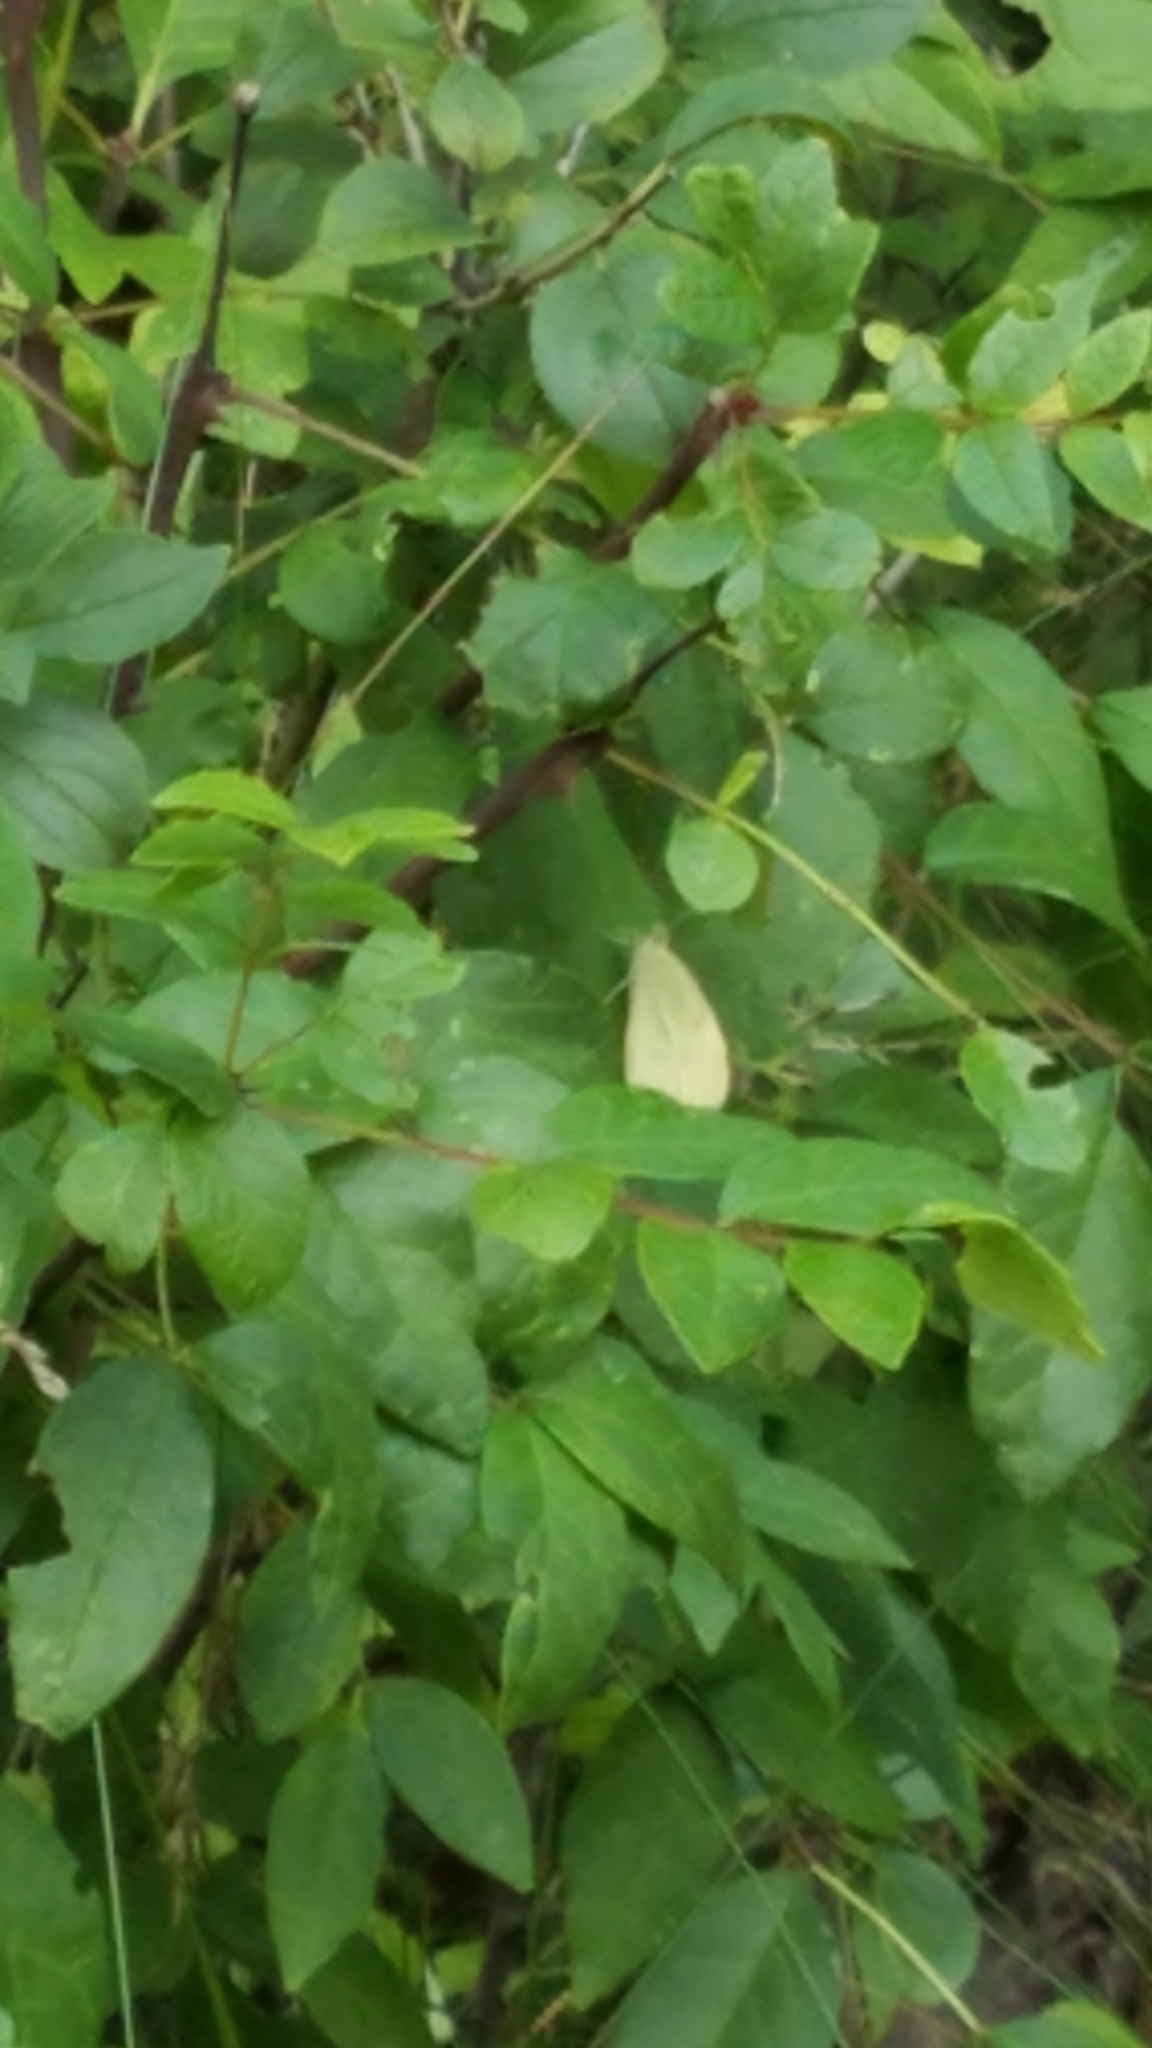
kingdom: Animalia
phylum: Arthropoda
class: Insecta
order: Lepidoptera
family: Pieridae
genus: Pieris
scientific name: Pieris rapae
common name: Small white
